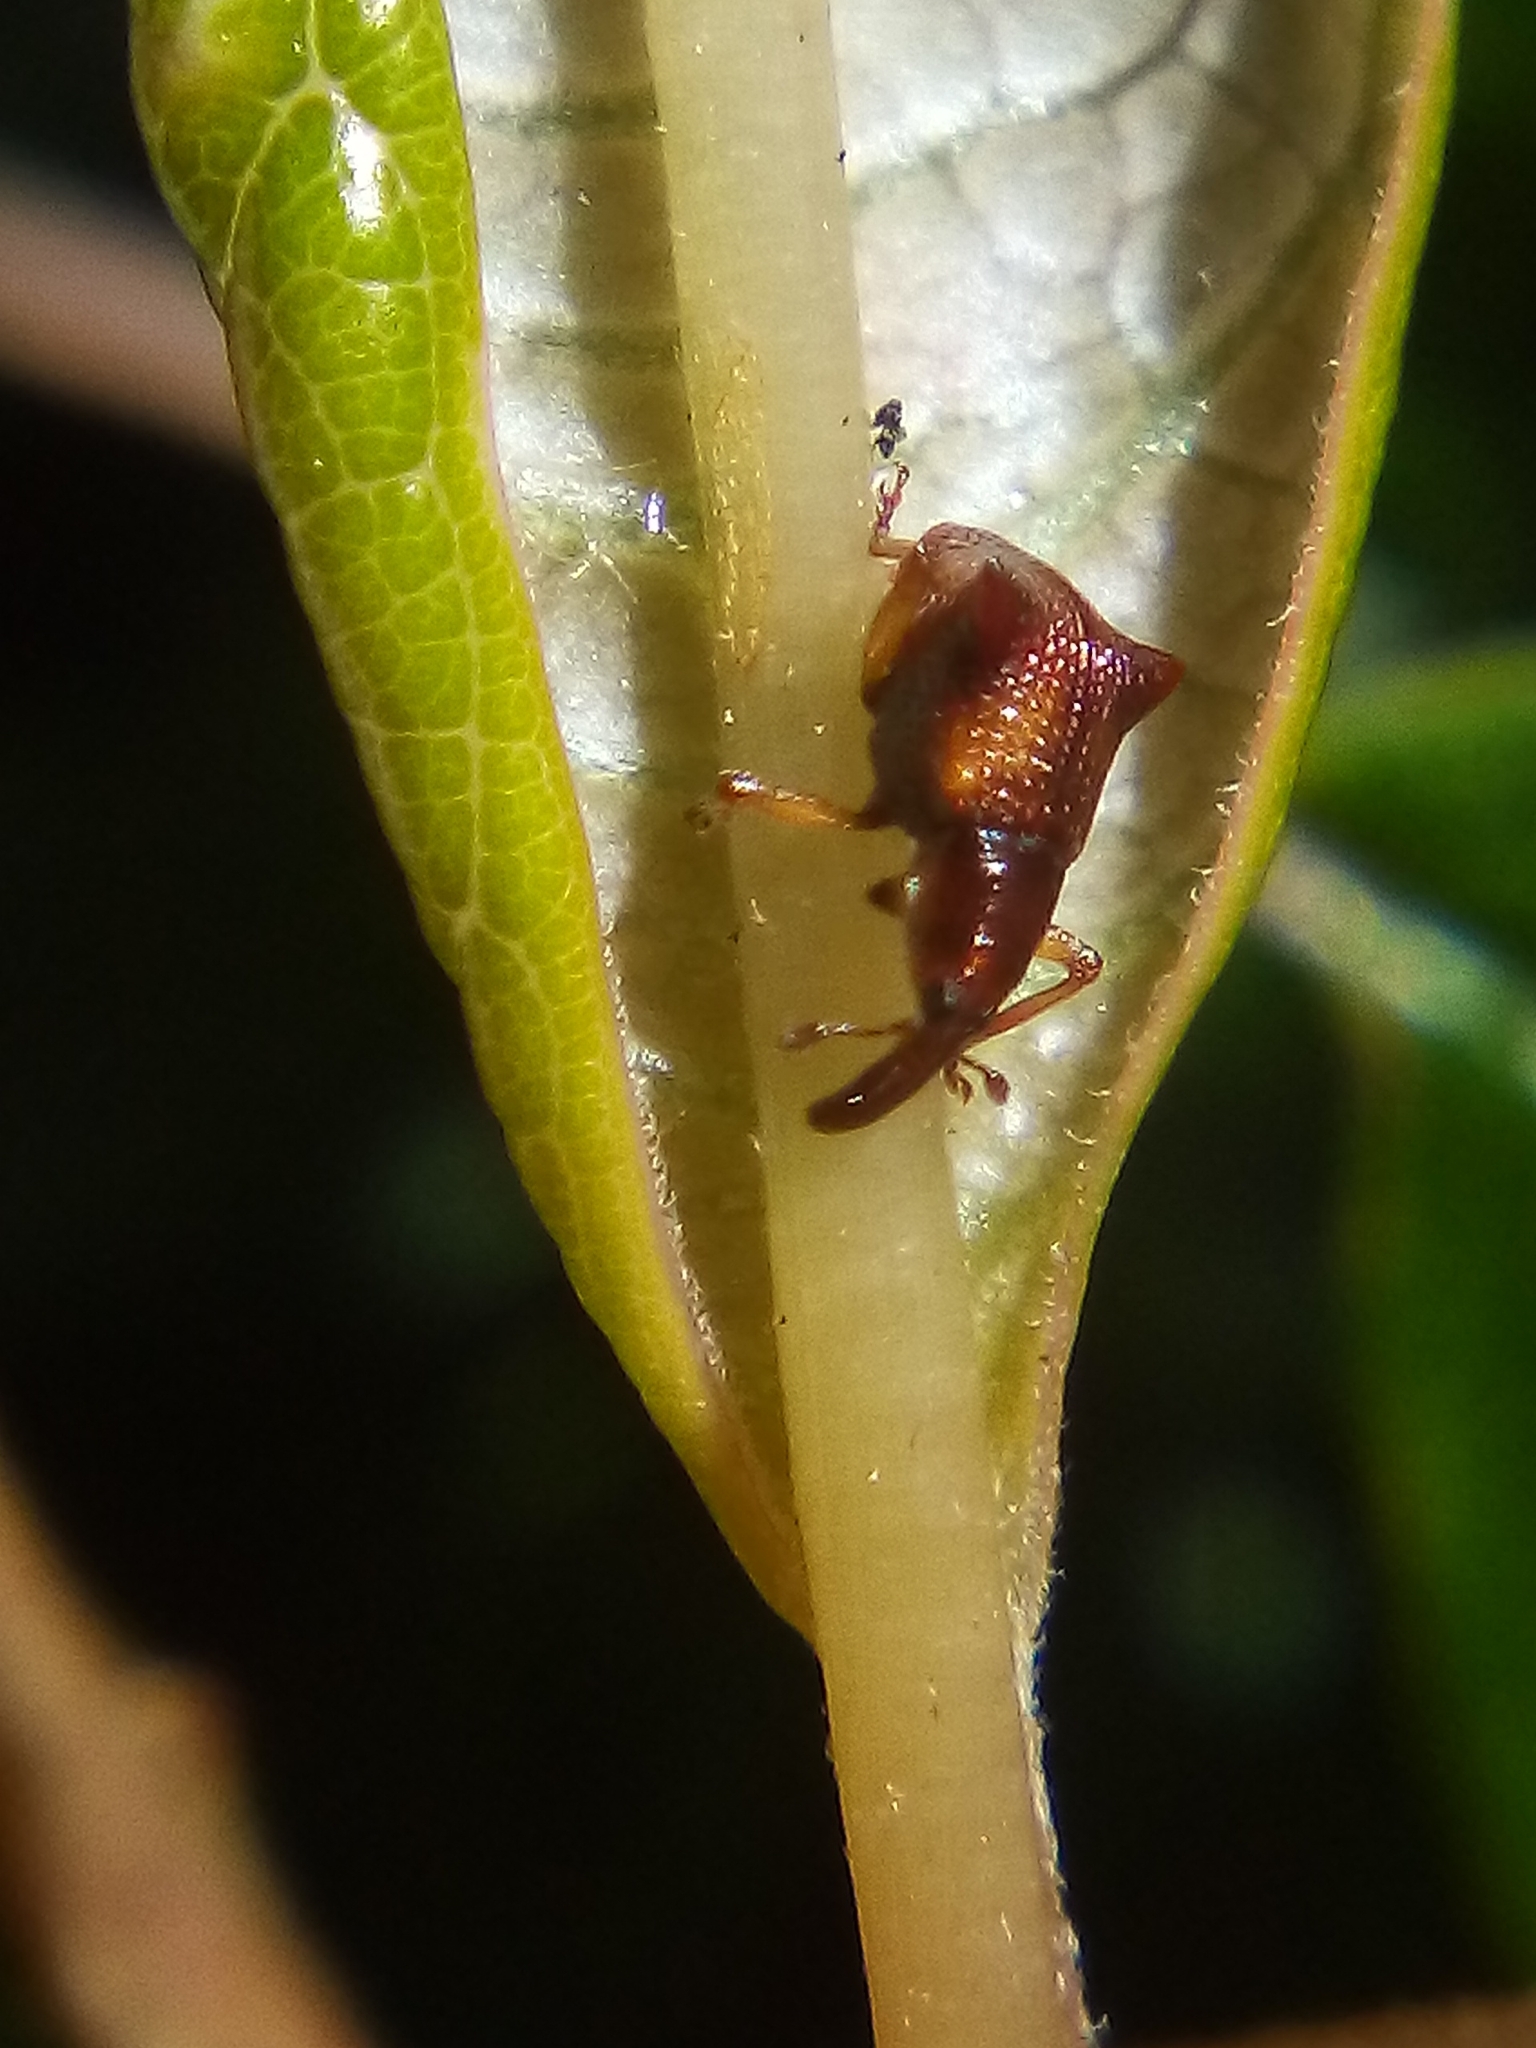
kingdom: Animalia
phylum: Arthropoda
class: Insecta
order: Coleoptera
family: Curculionidae
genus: Oropterus
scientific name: Oropterus coniger
